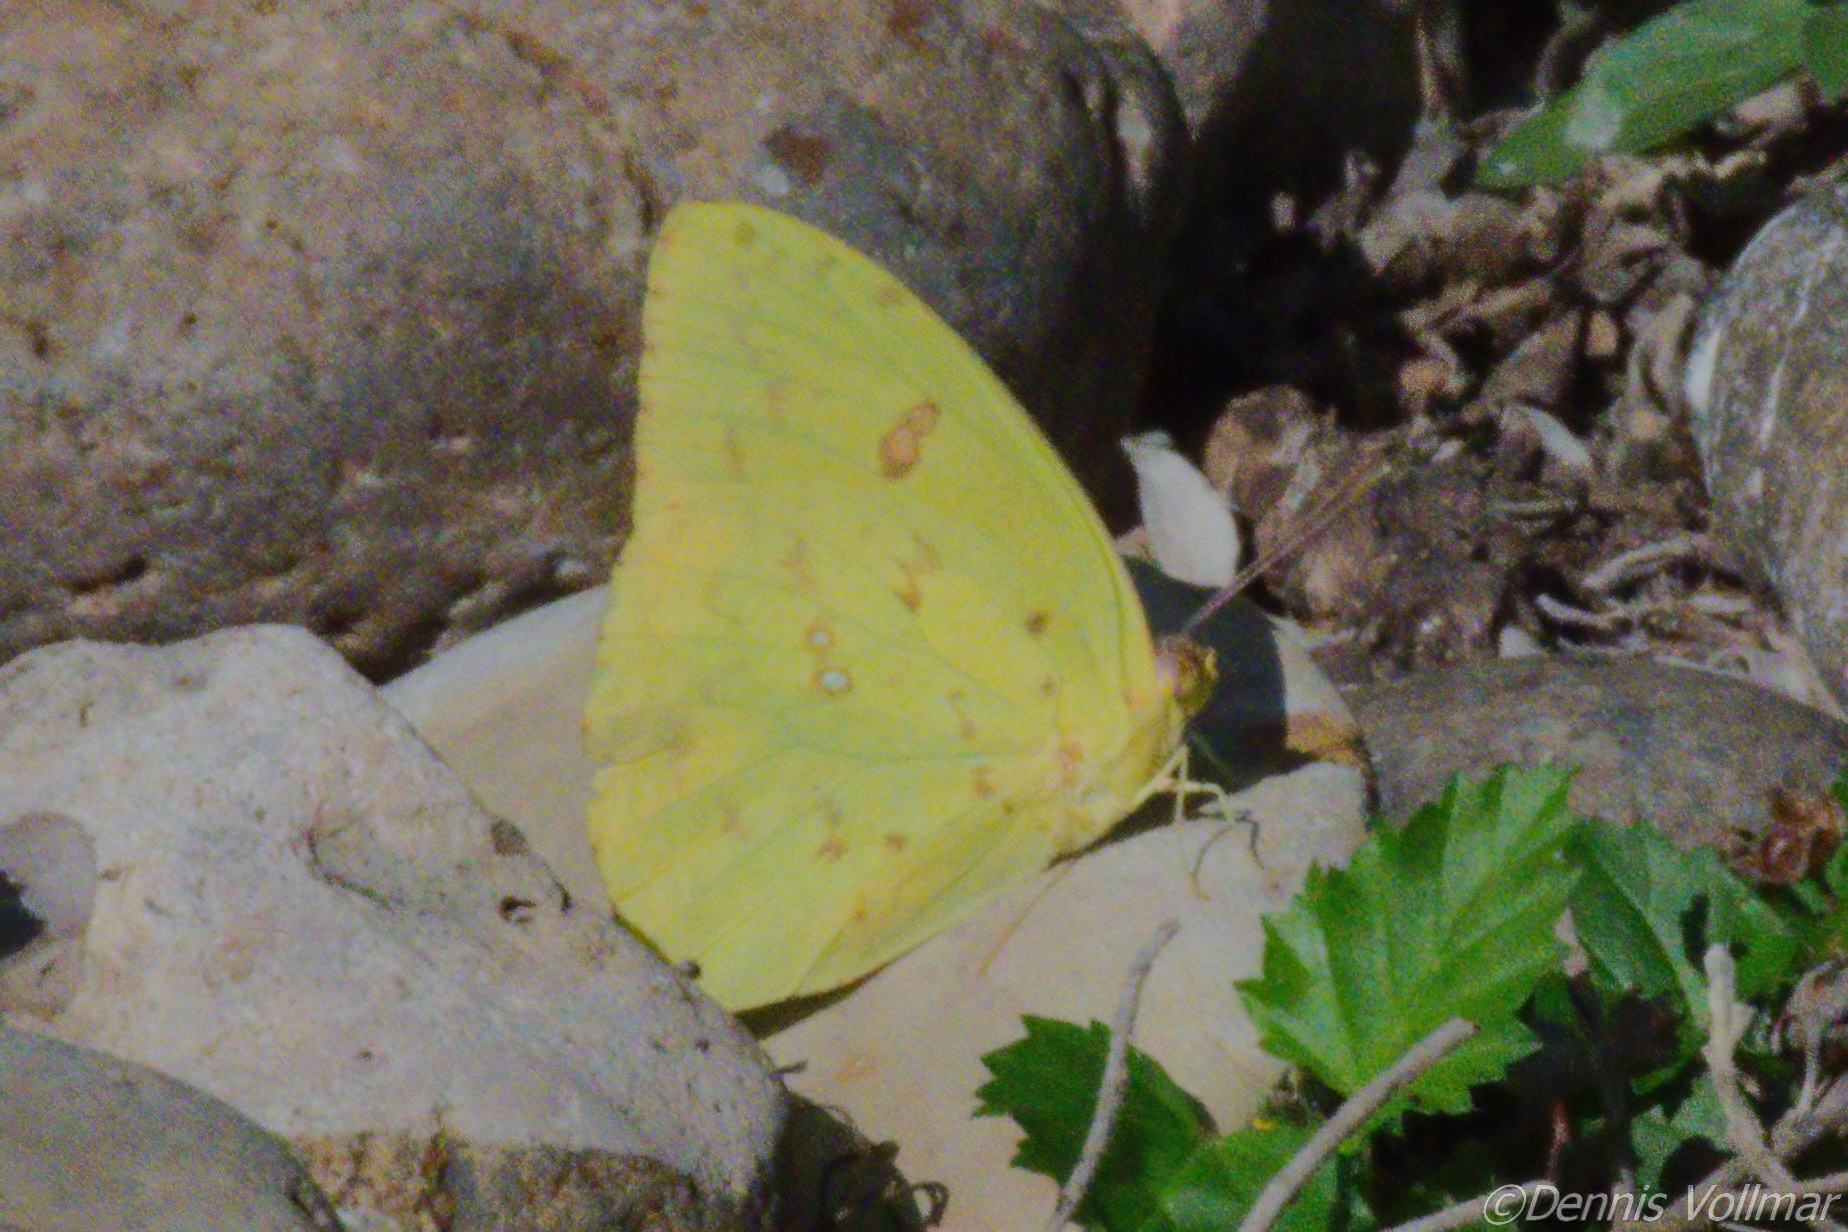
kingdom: Animalia
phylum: Arthropoda
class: Insecta
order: Lepidoptera
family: Pieridae
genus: Phoebis
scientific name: Phoebis sennae
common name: Cloudless sulphur
